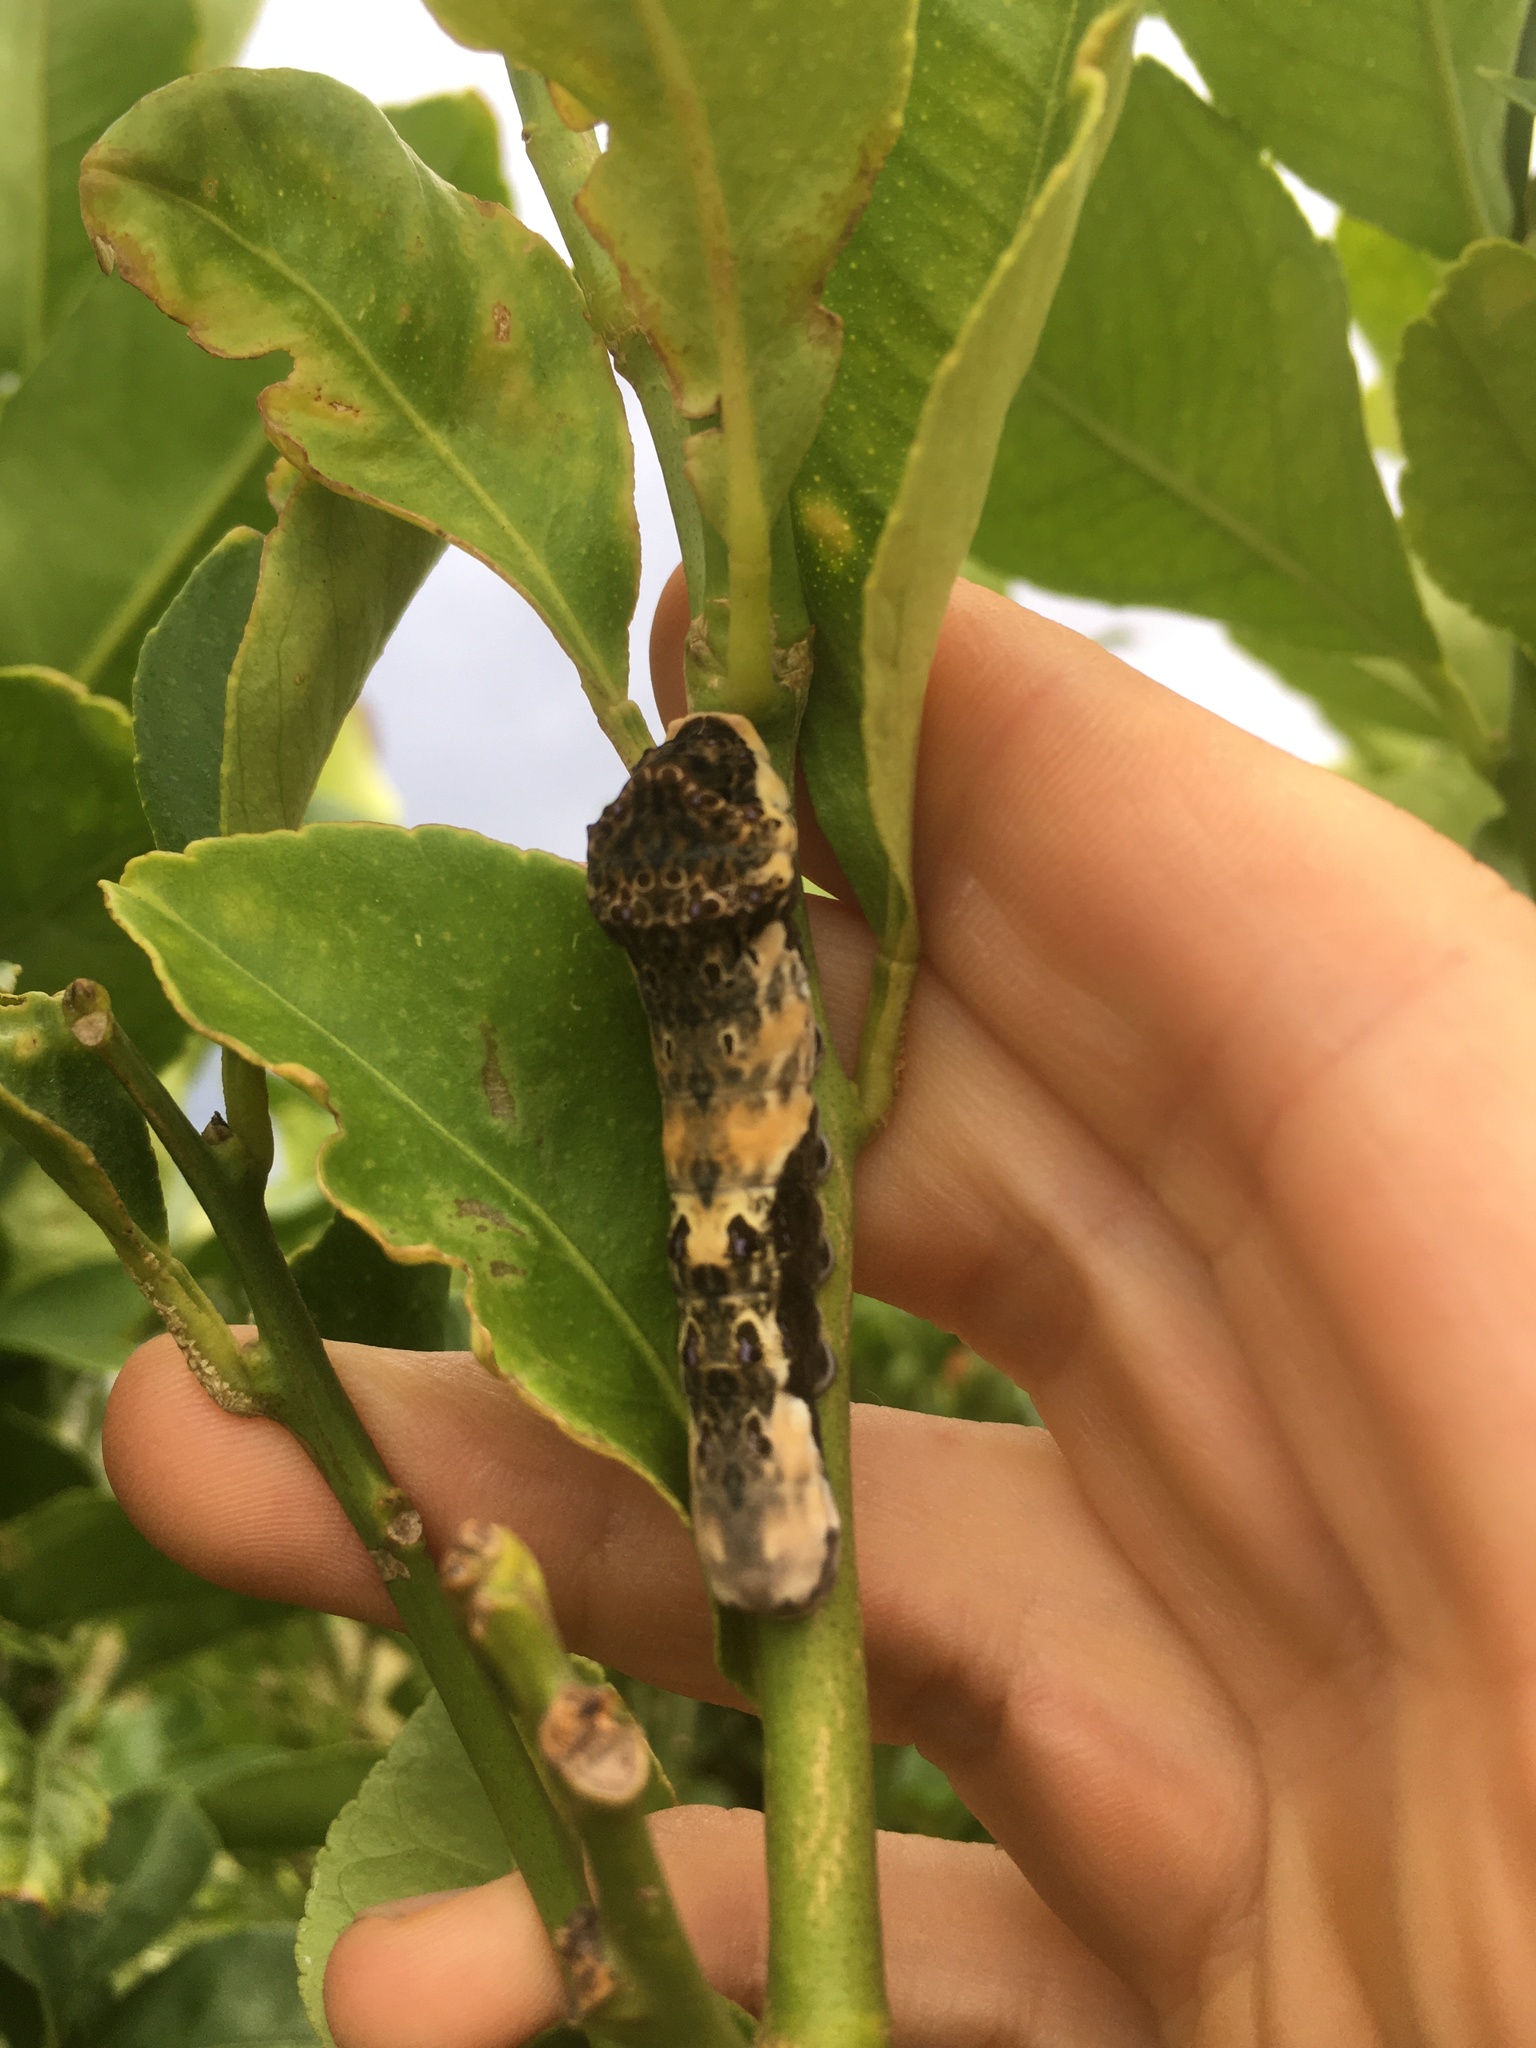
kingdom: Animalia
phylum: Arthropoda
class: Insecta
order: Lepidoptera
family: Papilionidae
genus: Papilio
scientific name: Papilio thoas
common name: King swallowtail
